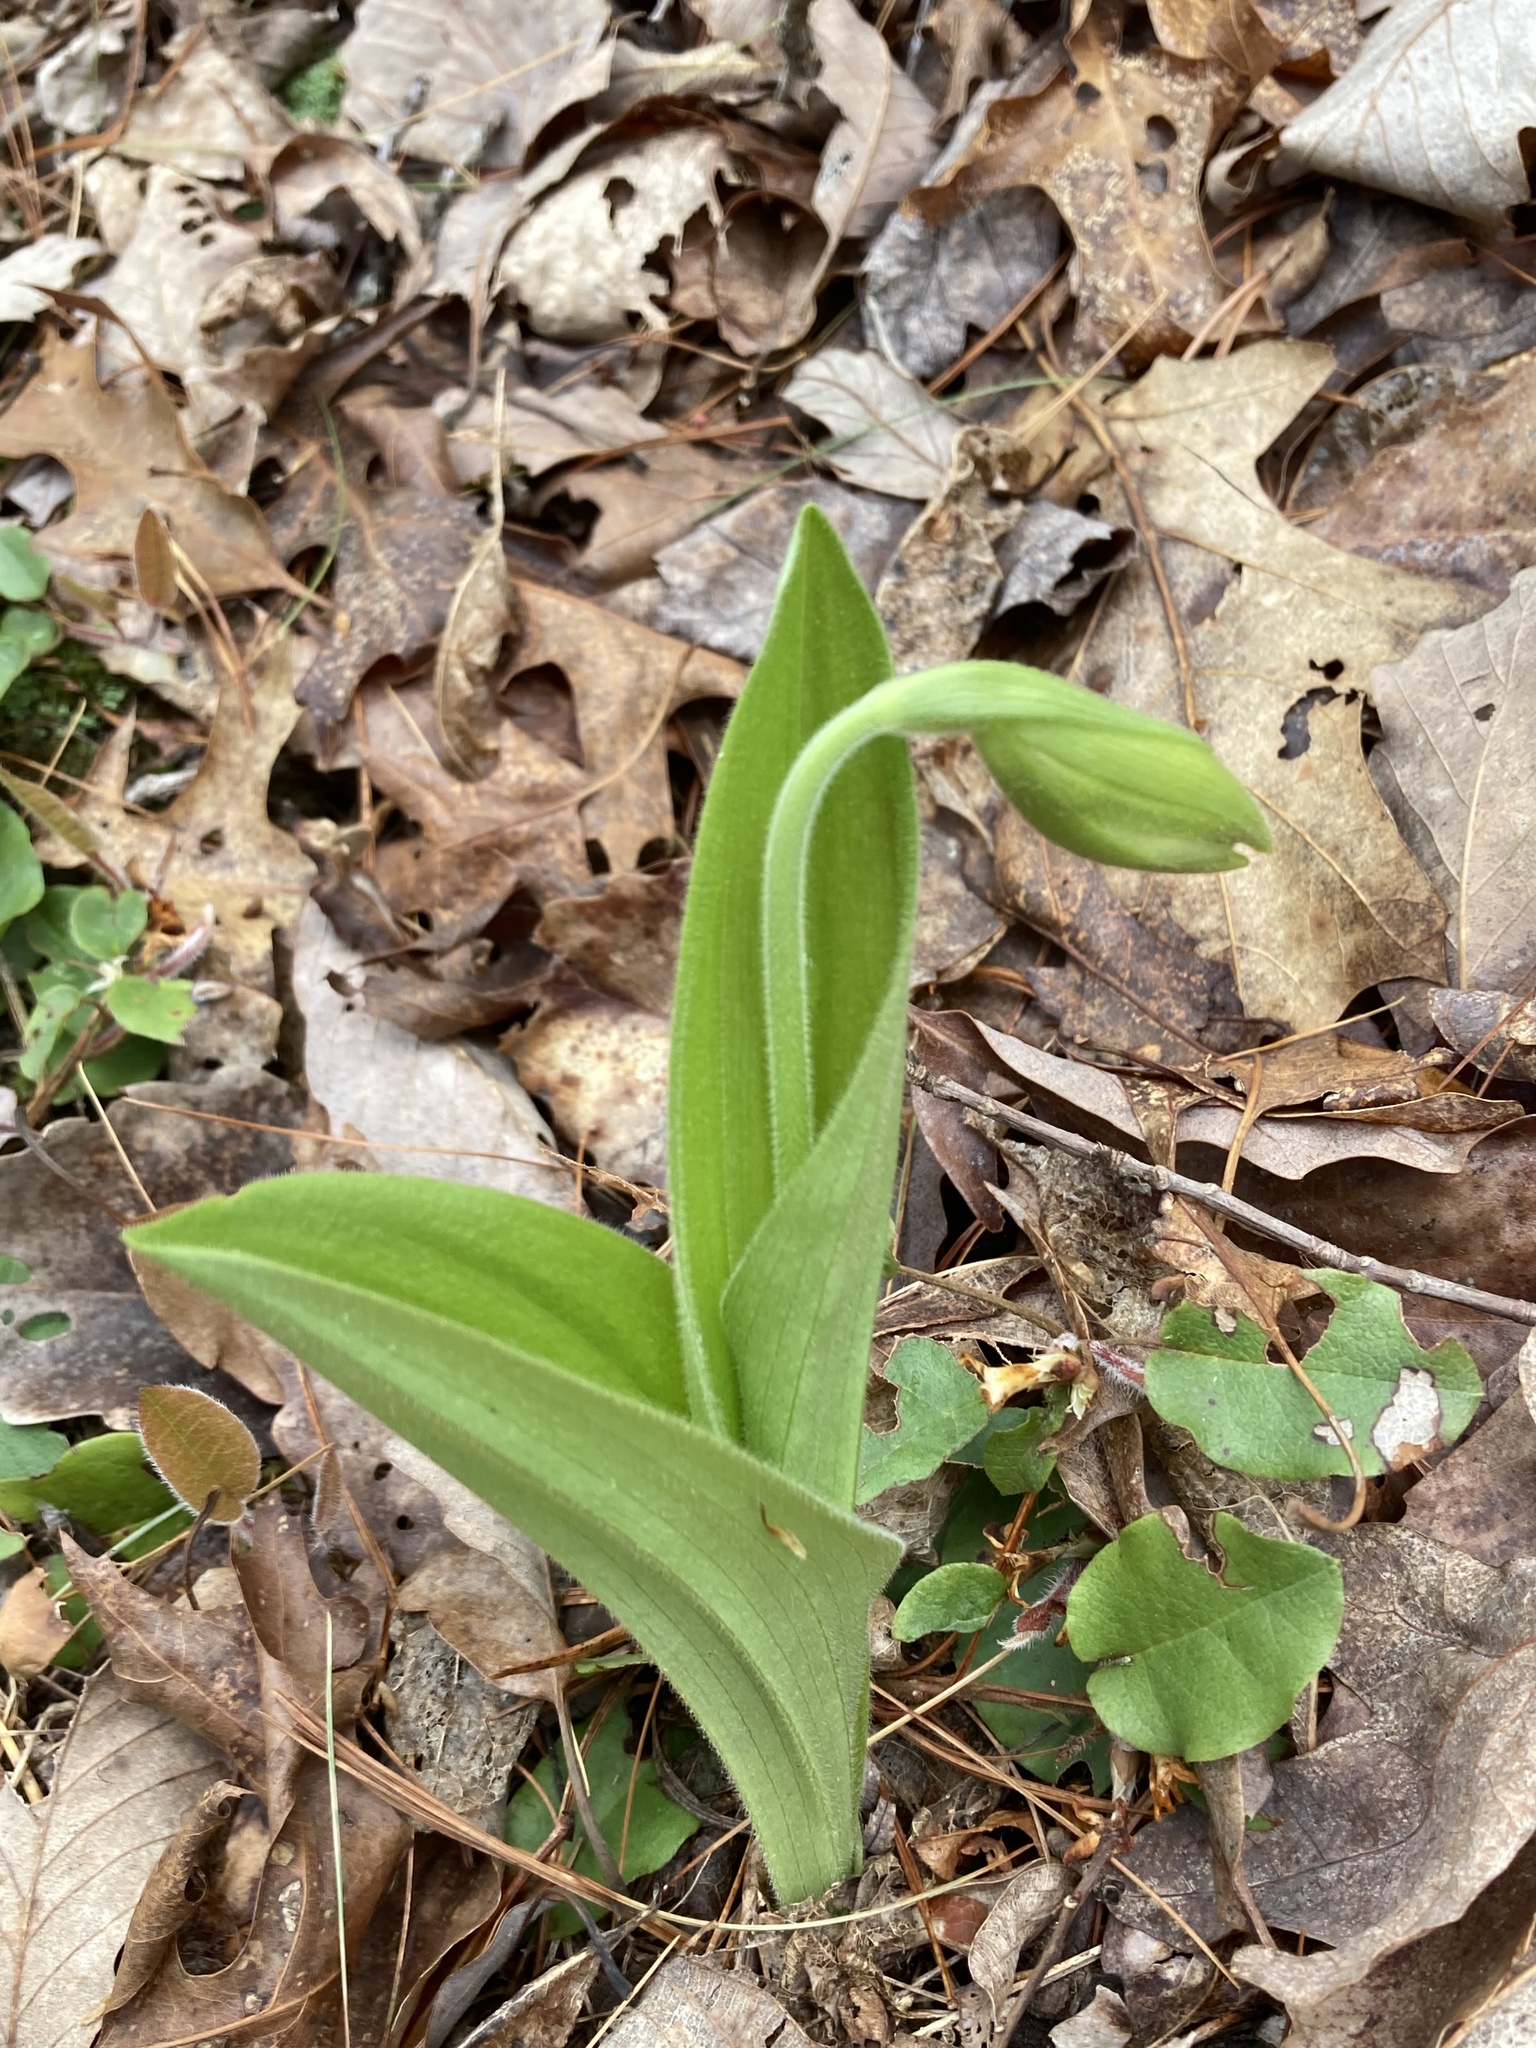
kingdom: Plantae
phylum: Tracheophyta
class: Liliopsida
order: Asparagales
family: Orchidaceae
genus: Cypripedium
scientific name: Cypripedium acaule
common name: Pink lady's-slipper
